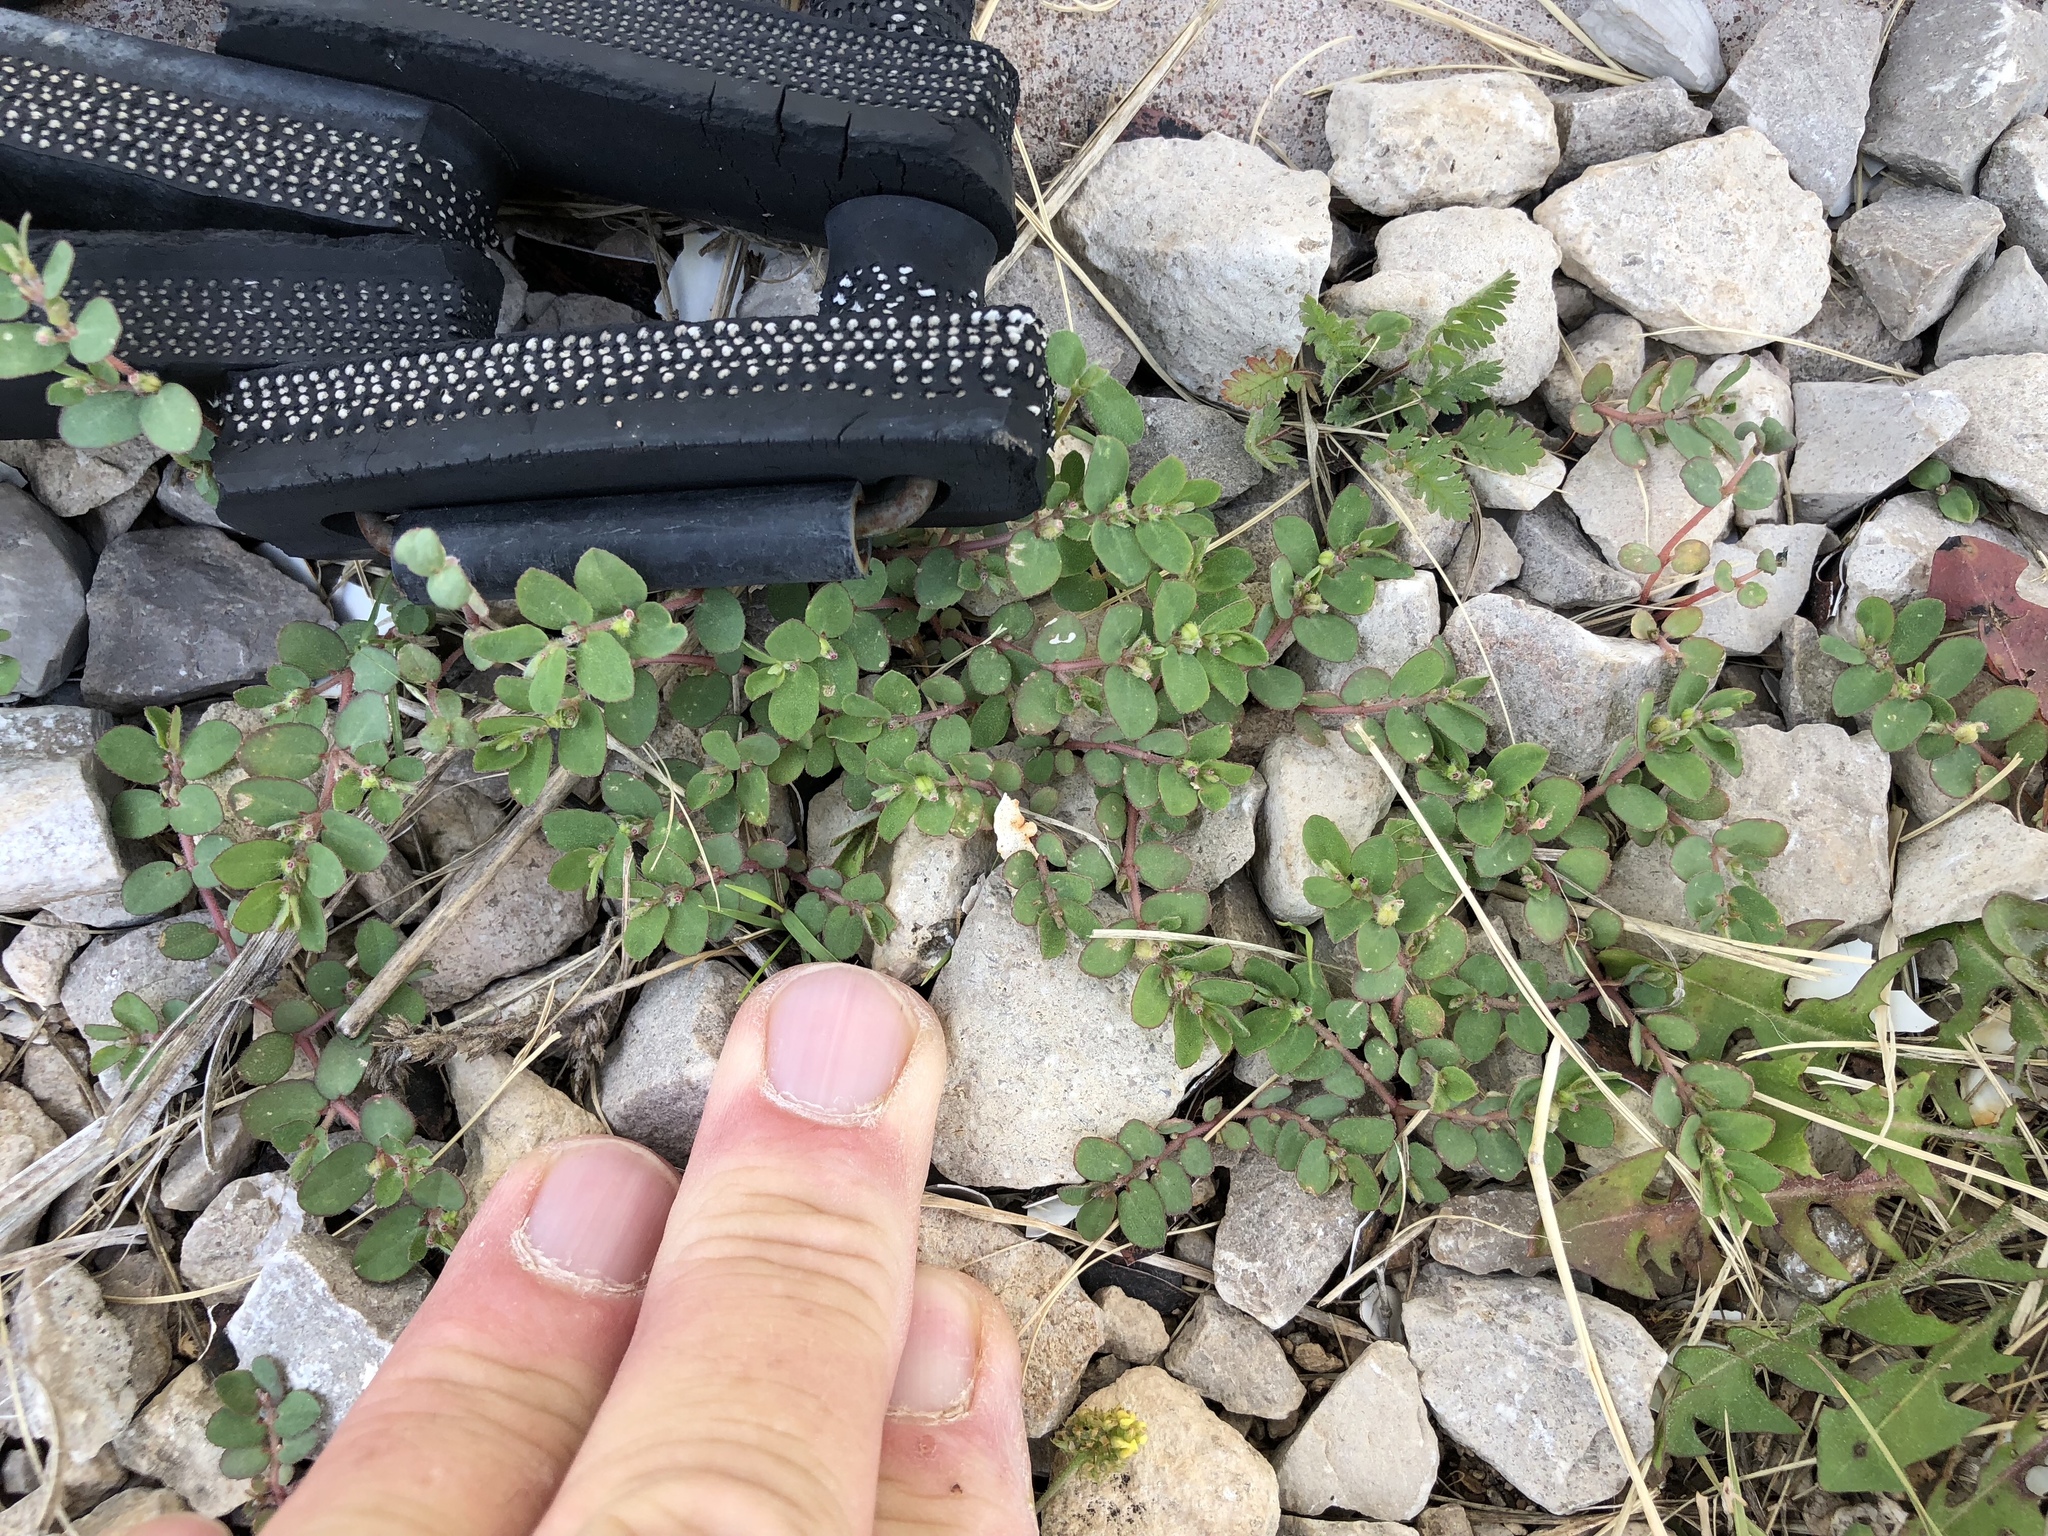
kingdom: Plantae
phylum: Tracheophyta
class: Magnoliopsida
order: Malpighiales
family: Euphorbiaceae
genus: Euphorbia
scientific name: Euphorbia prostrata
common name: Prostrate sandmat
